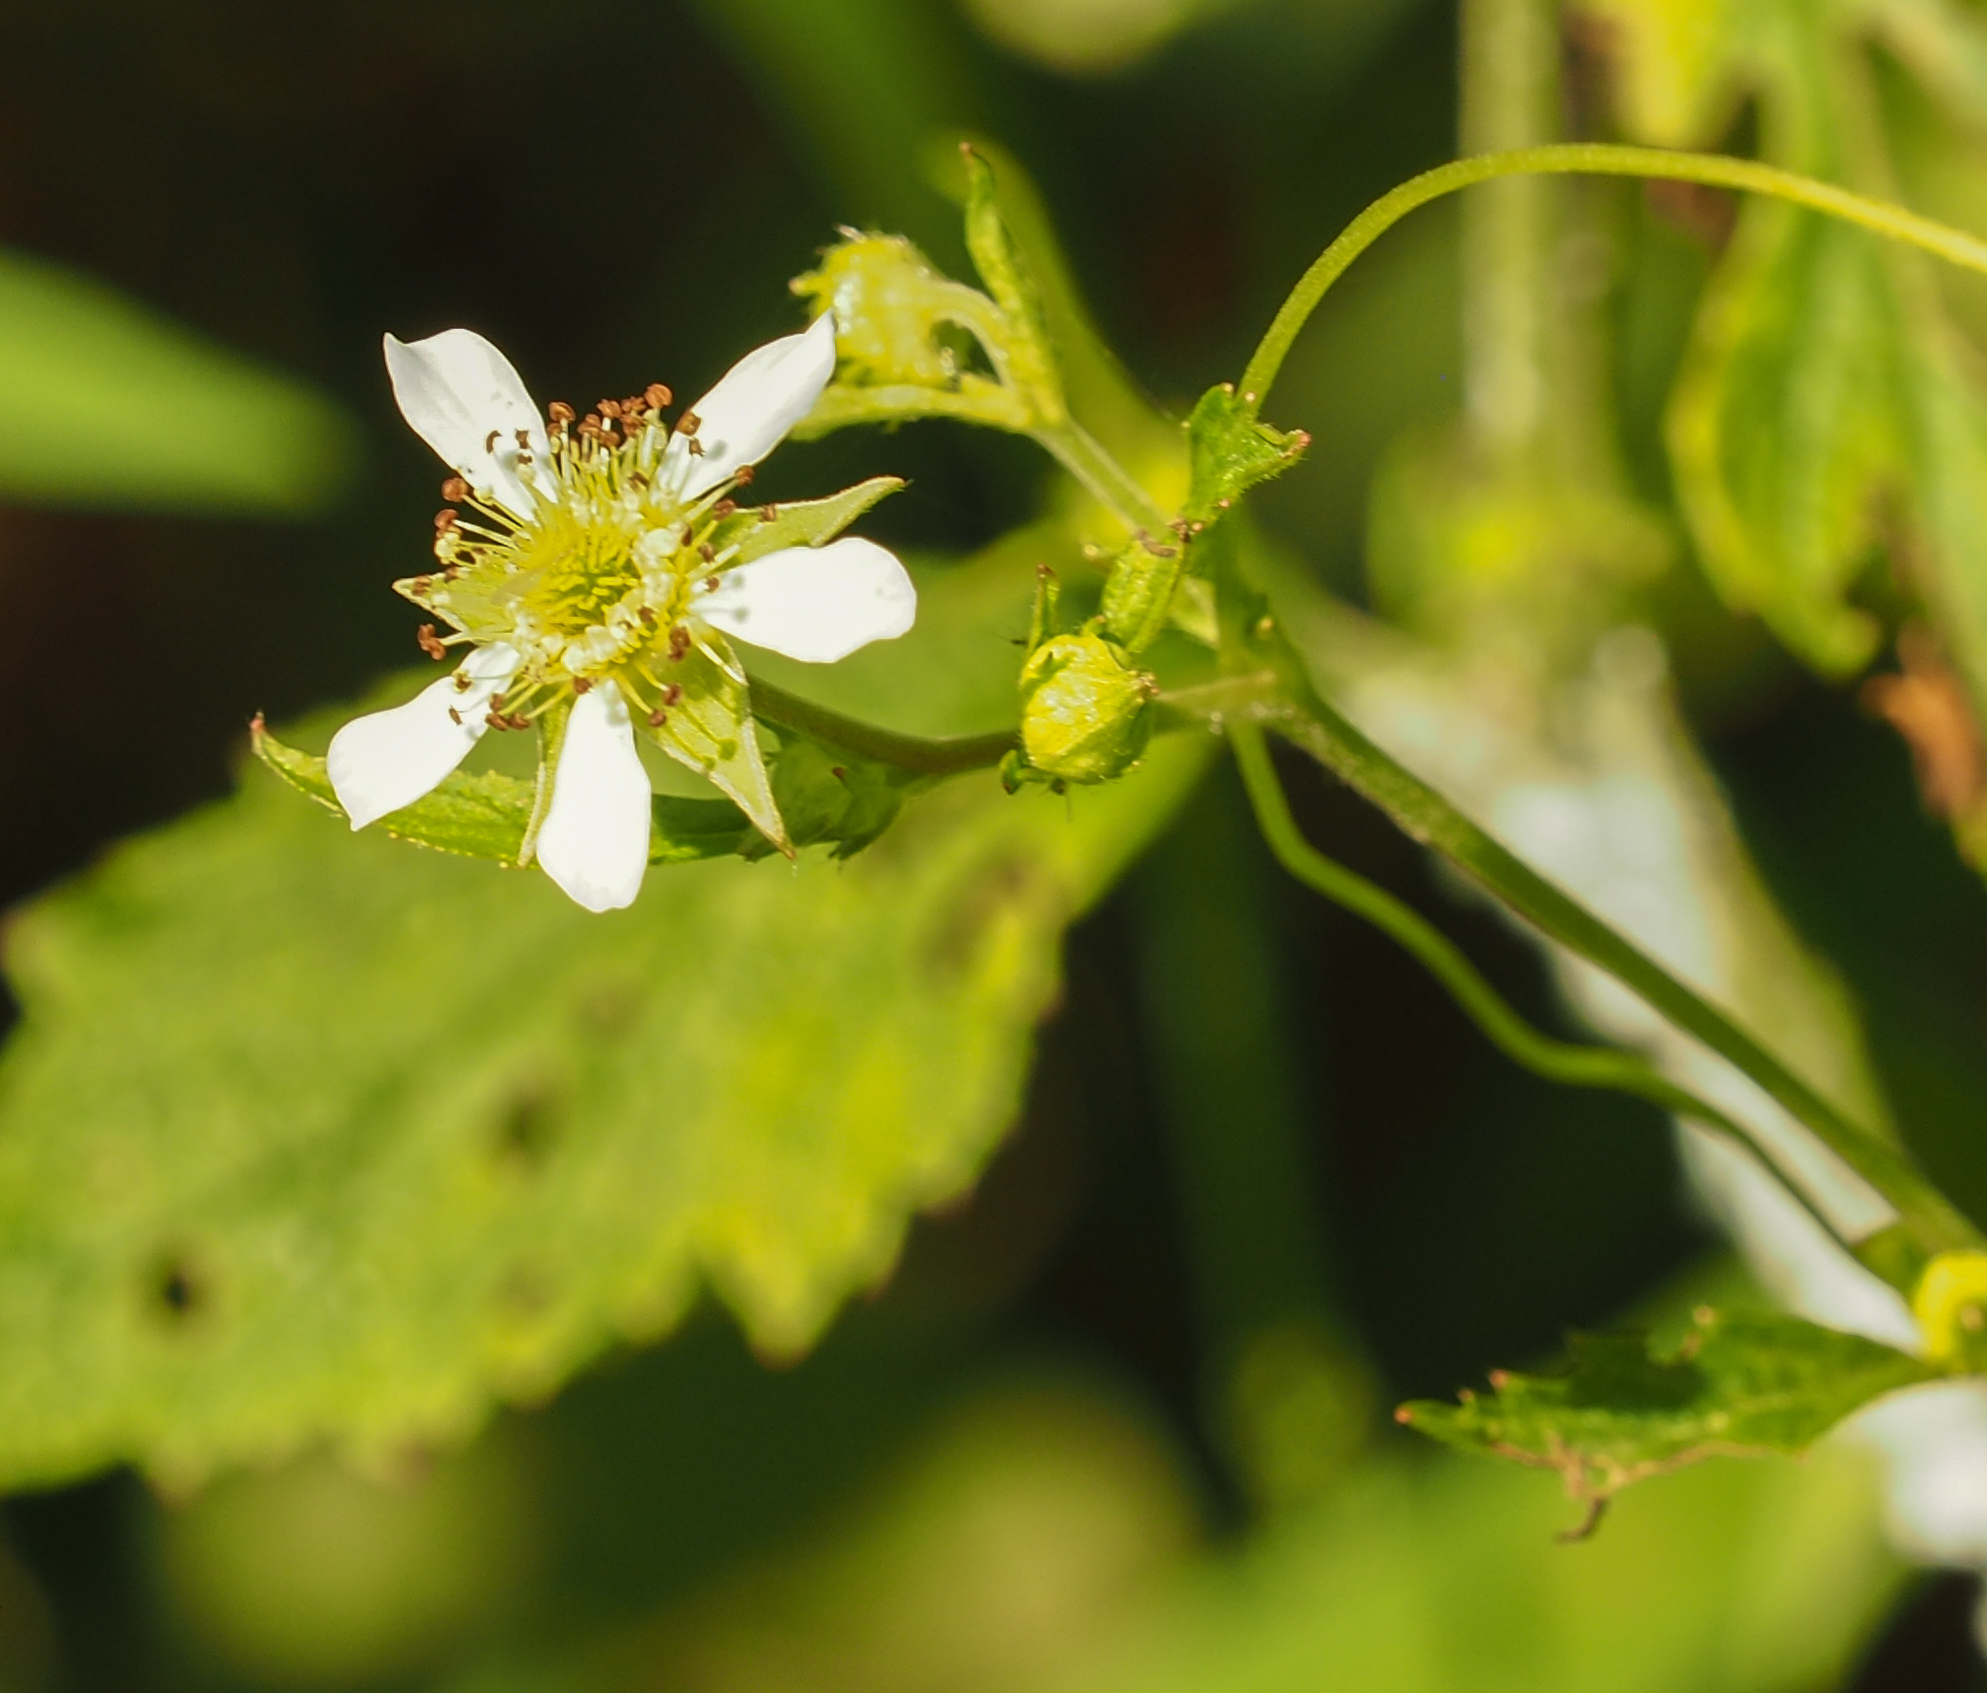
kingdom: Plantae
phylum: Tracheophyta
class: Magnoliopsida
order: Rosales
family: Rosaceae
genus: Geum
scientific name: Geum canadense
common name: White avens
